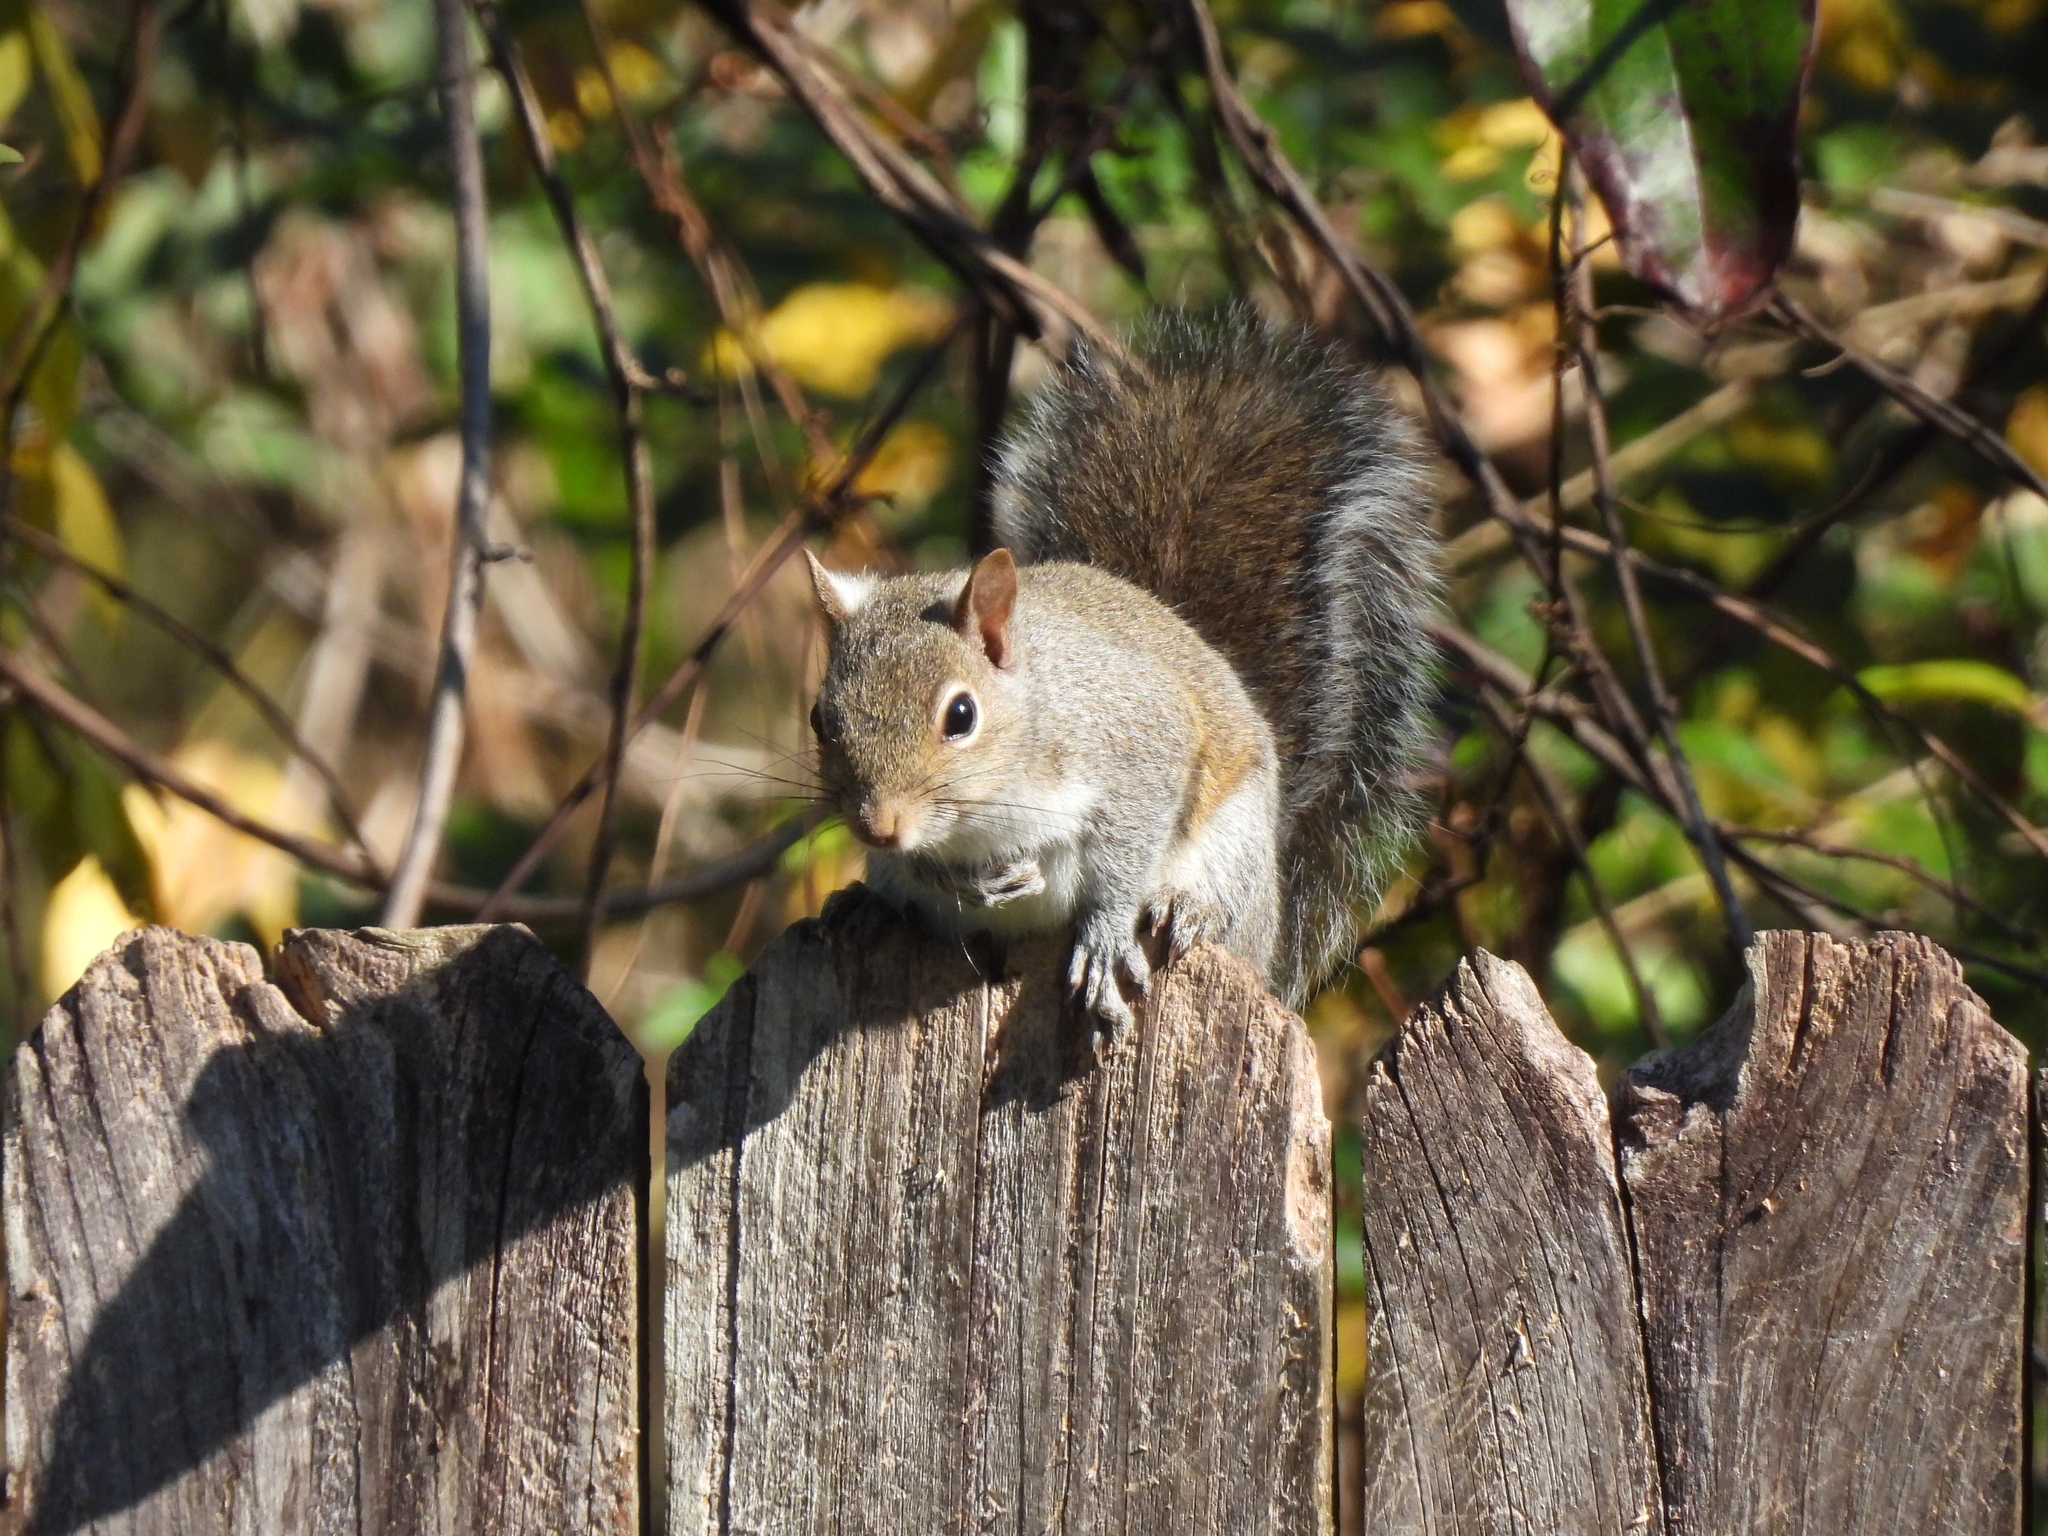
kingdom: Animalia
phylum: Chordata
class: Mammalia
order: Rodentia
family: Sciuridae
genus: Sciurus
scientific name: Sciurus carolinensis
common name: Eastern gray squirrel
